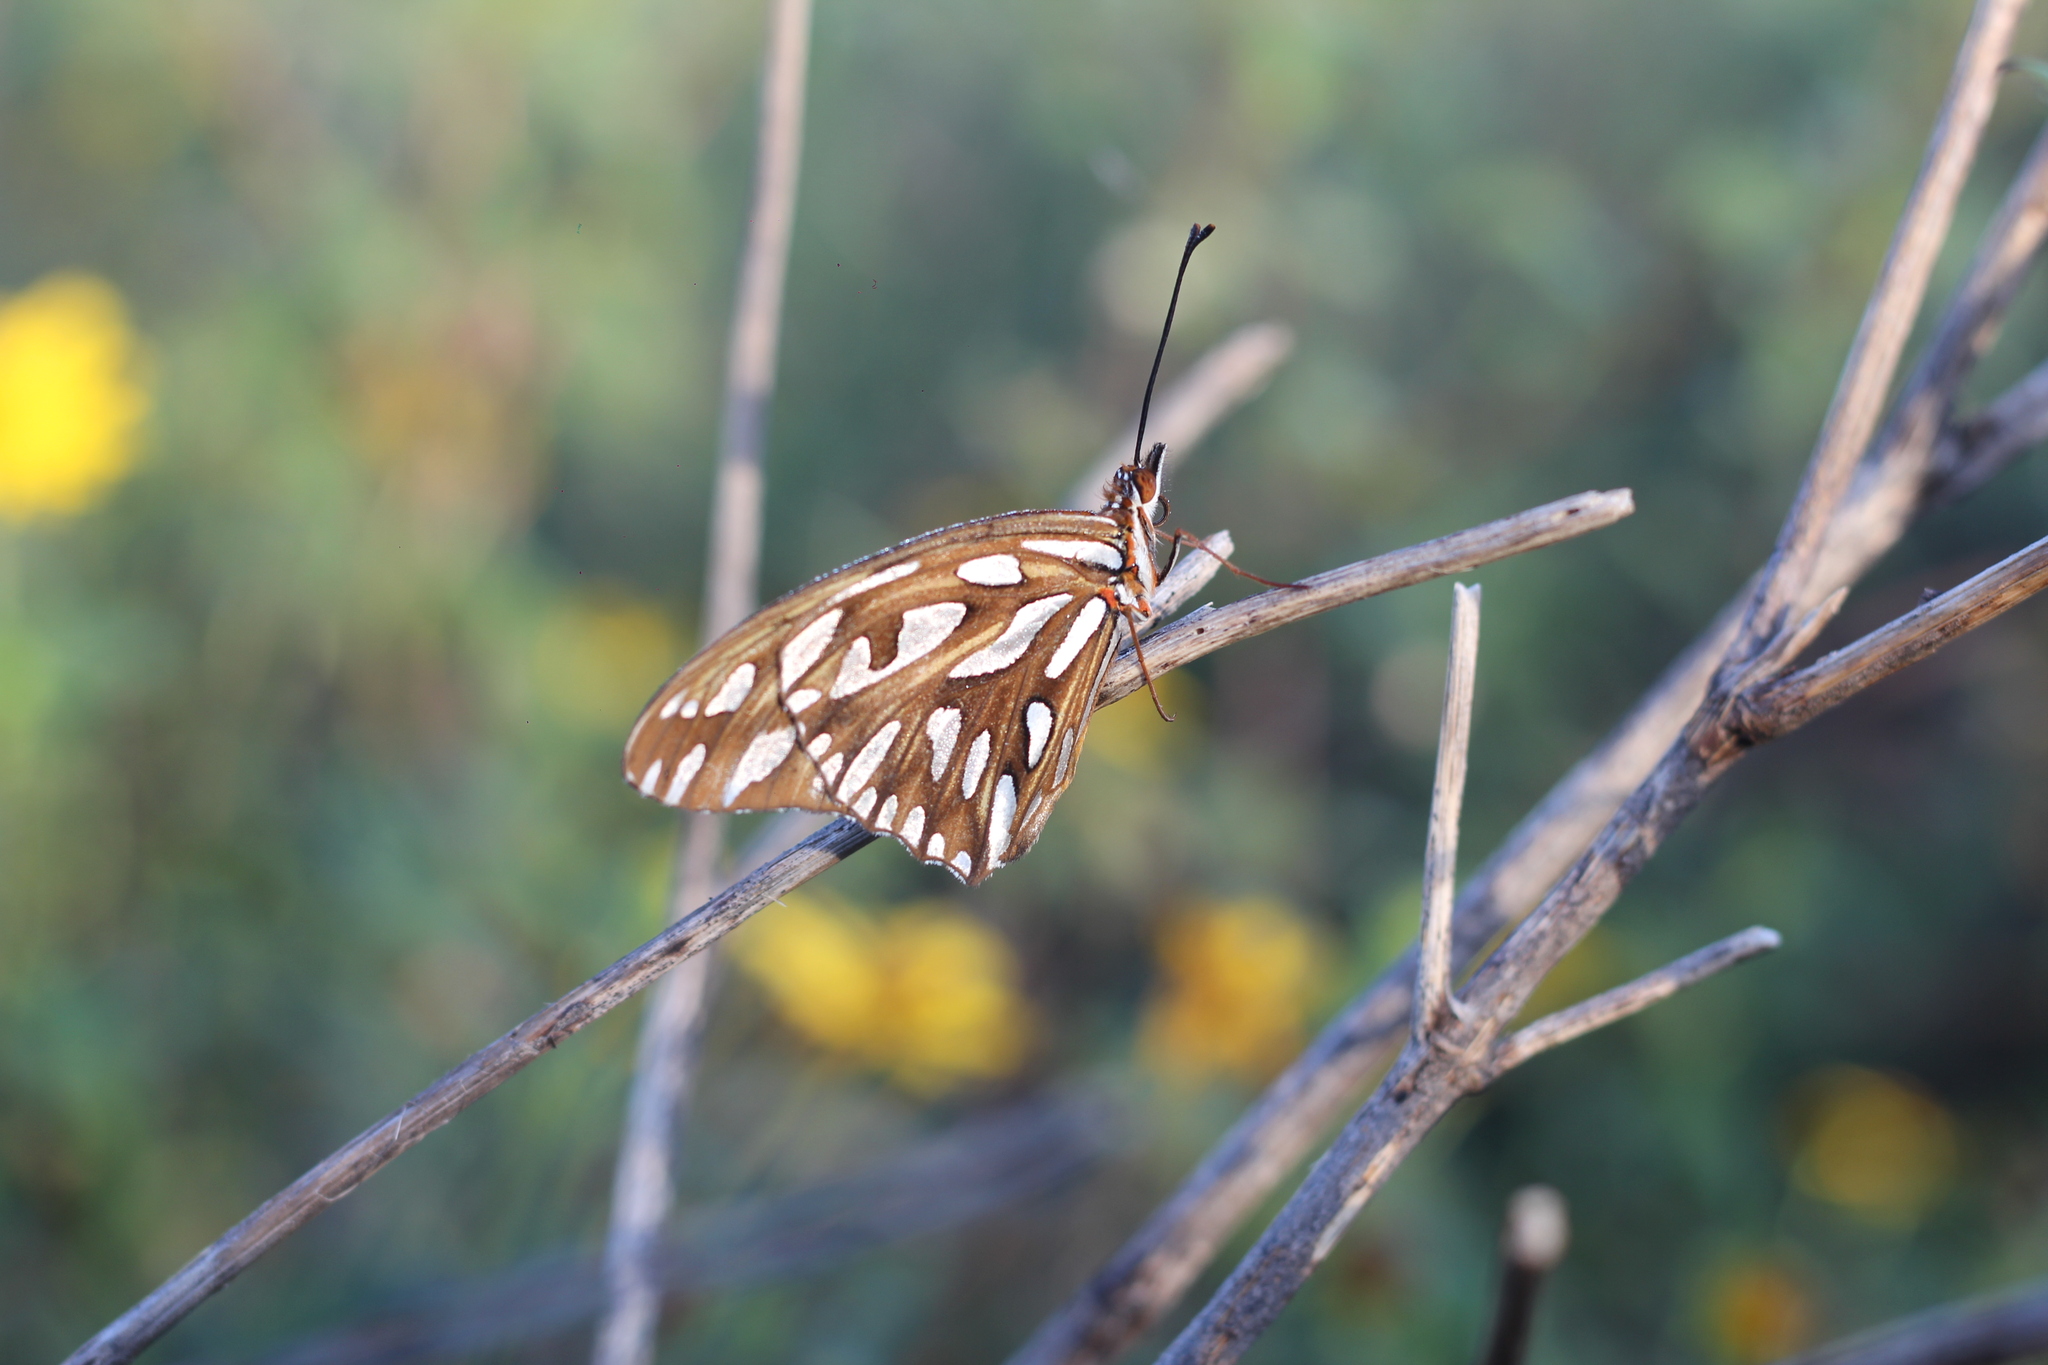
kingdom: Animalia
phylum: Arthropoda
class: Insecta
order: Lepidoptera
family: Nymphalidae
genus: Dione
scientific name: Dione vanillae
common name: Gulf fritillary
